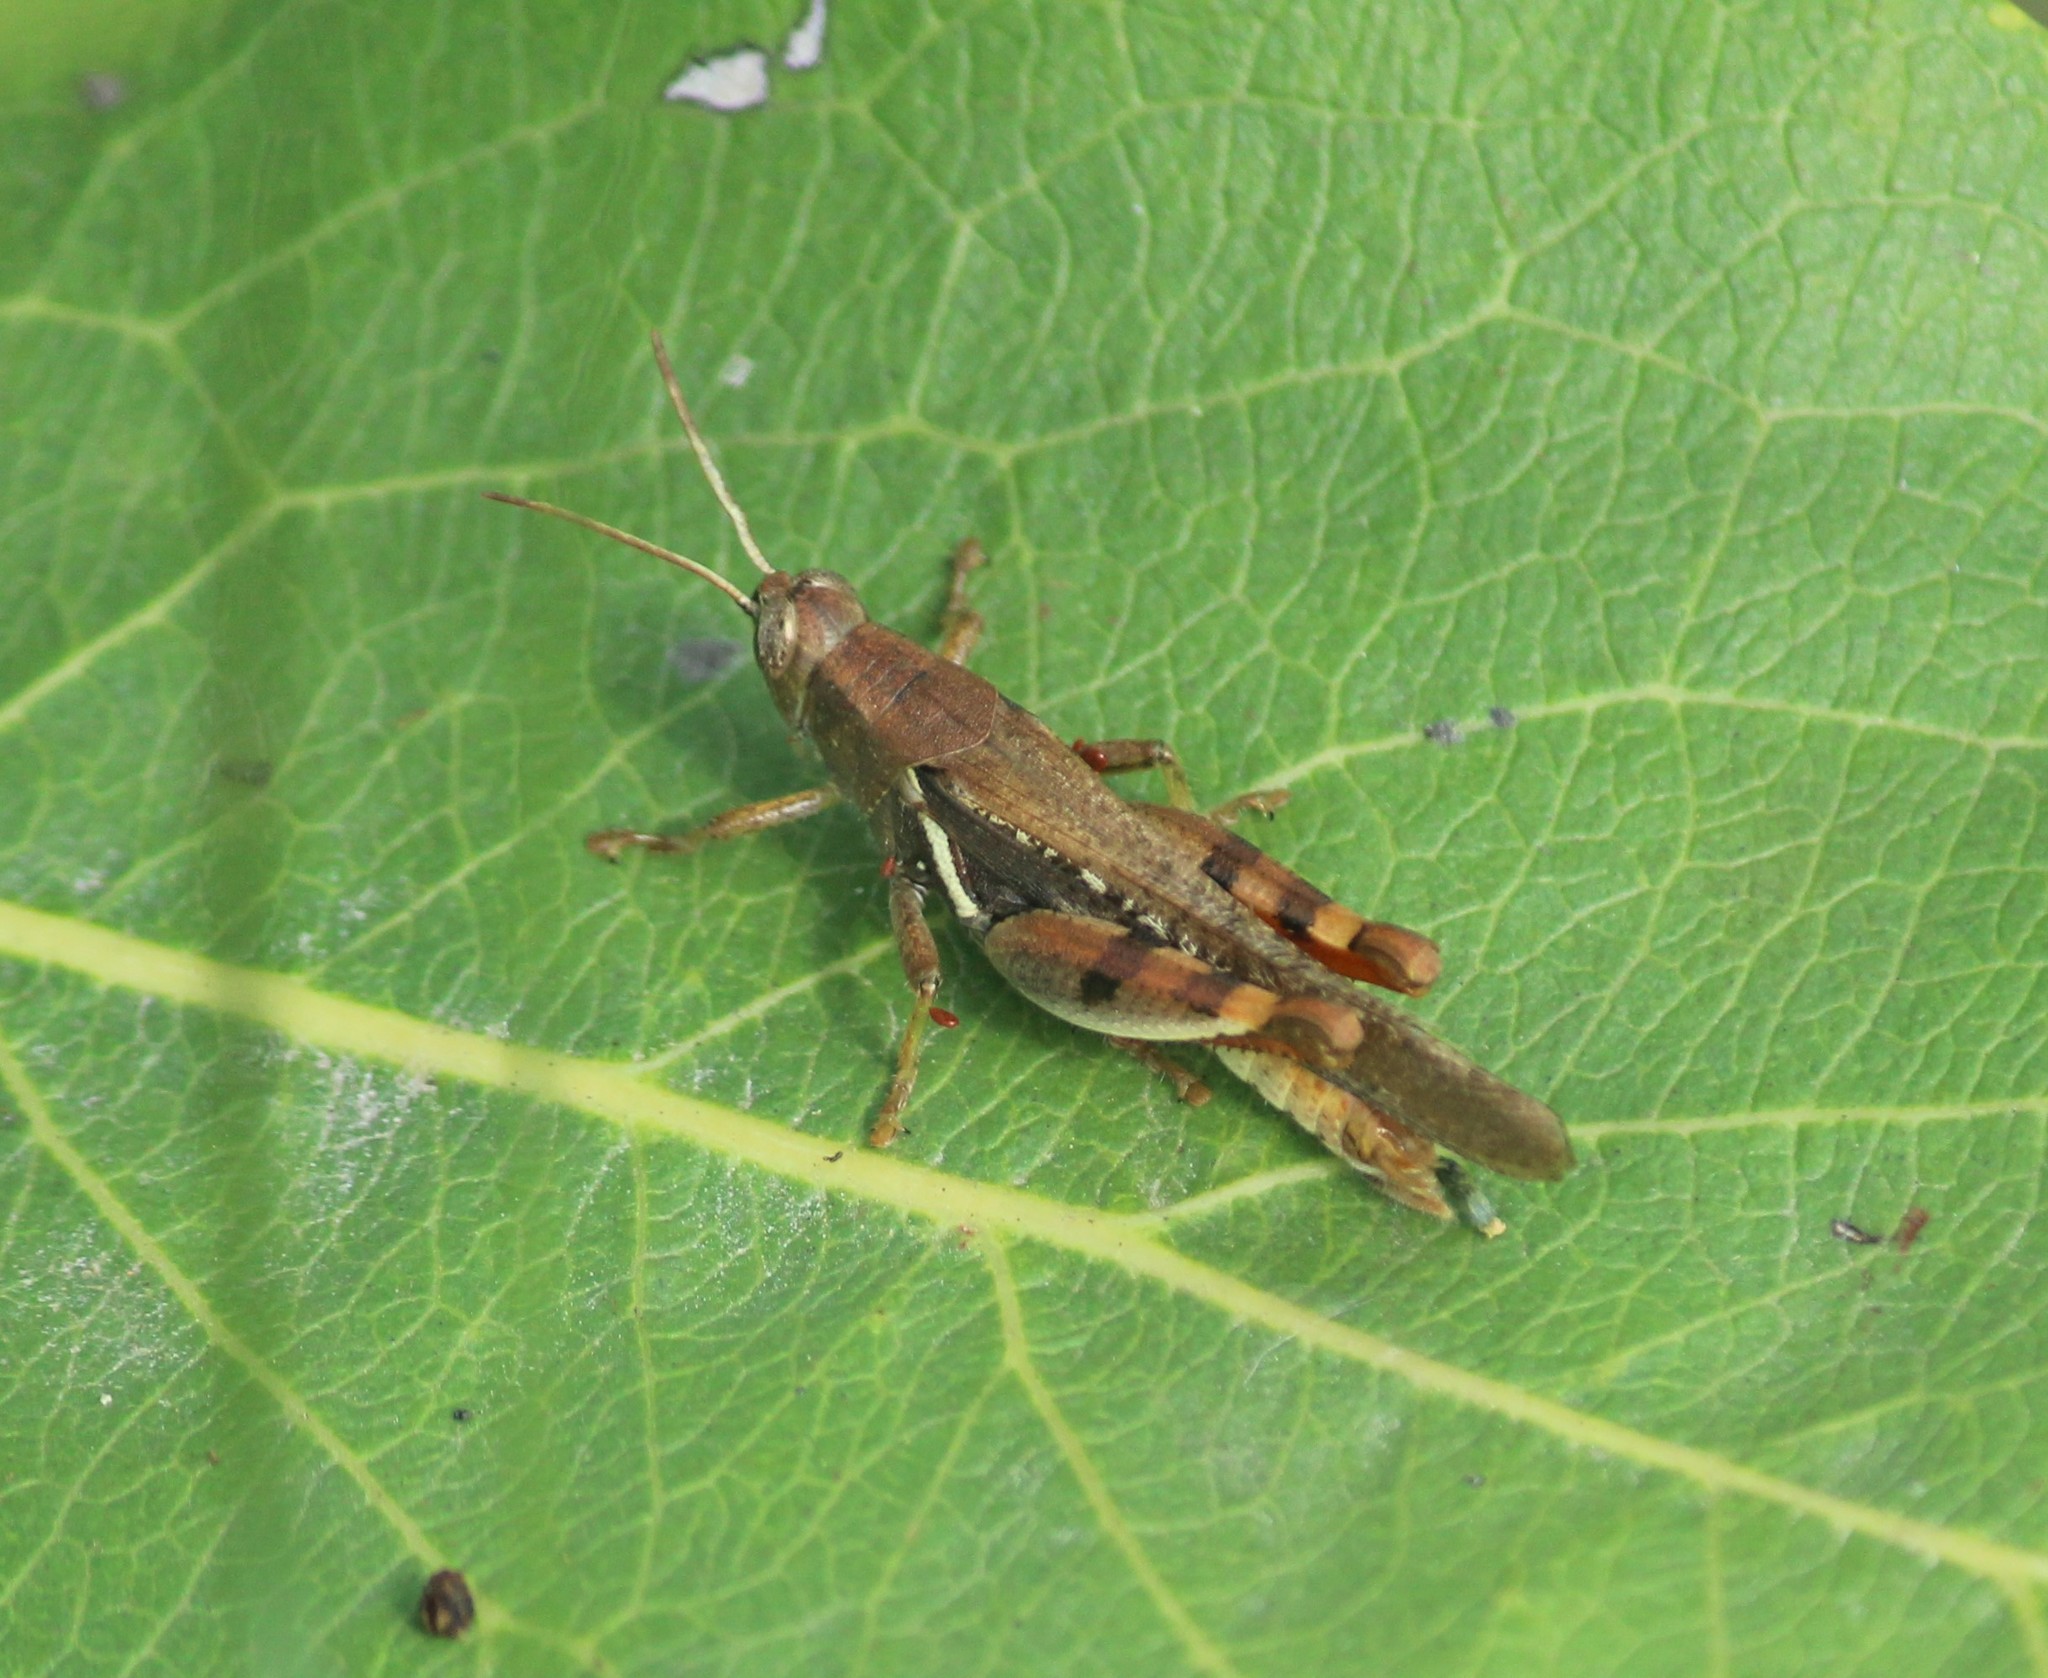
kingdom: Animalia
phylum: Arthropoda
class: Insecta
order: Orthoptera
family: Acrididae
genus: Diabolocatantops
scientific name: Diabolocatantops pinguis
